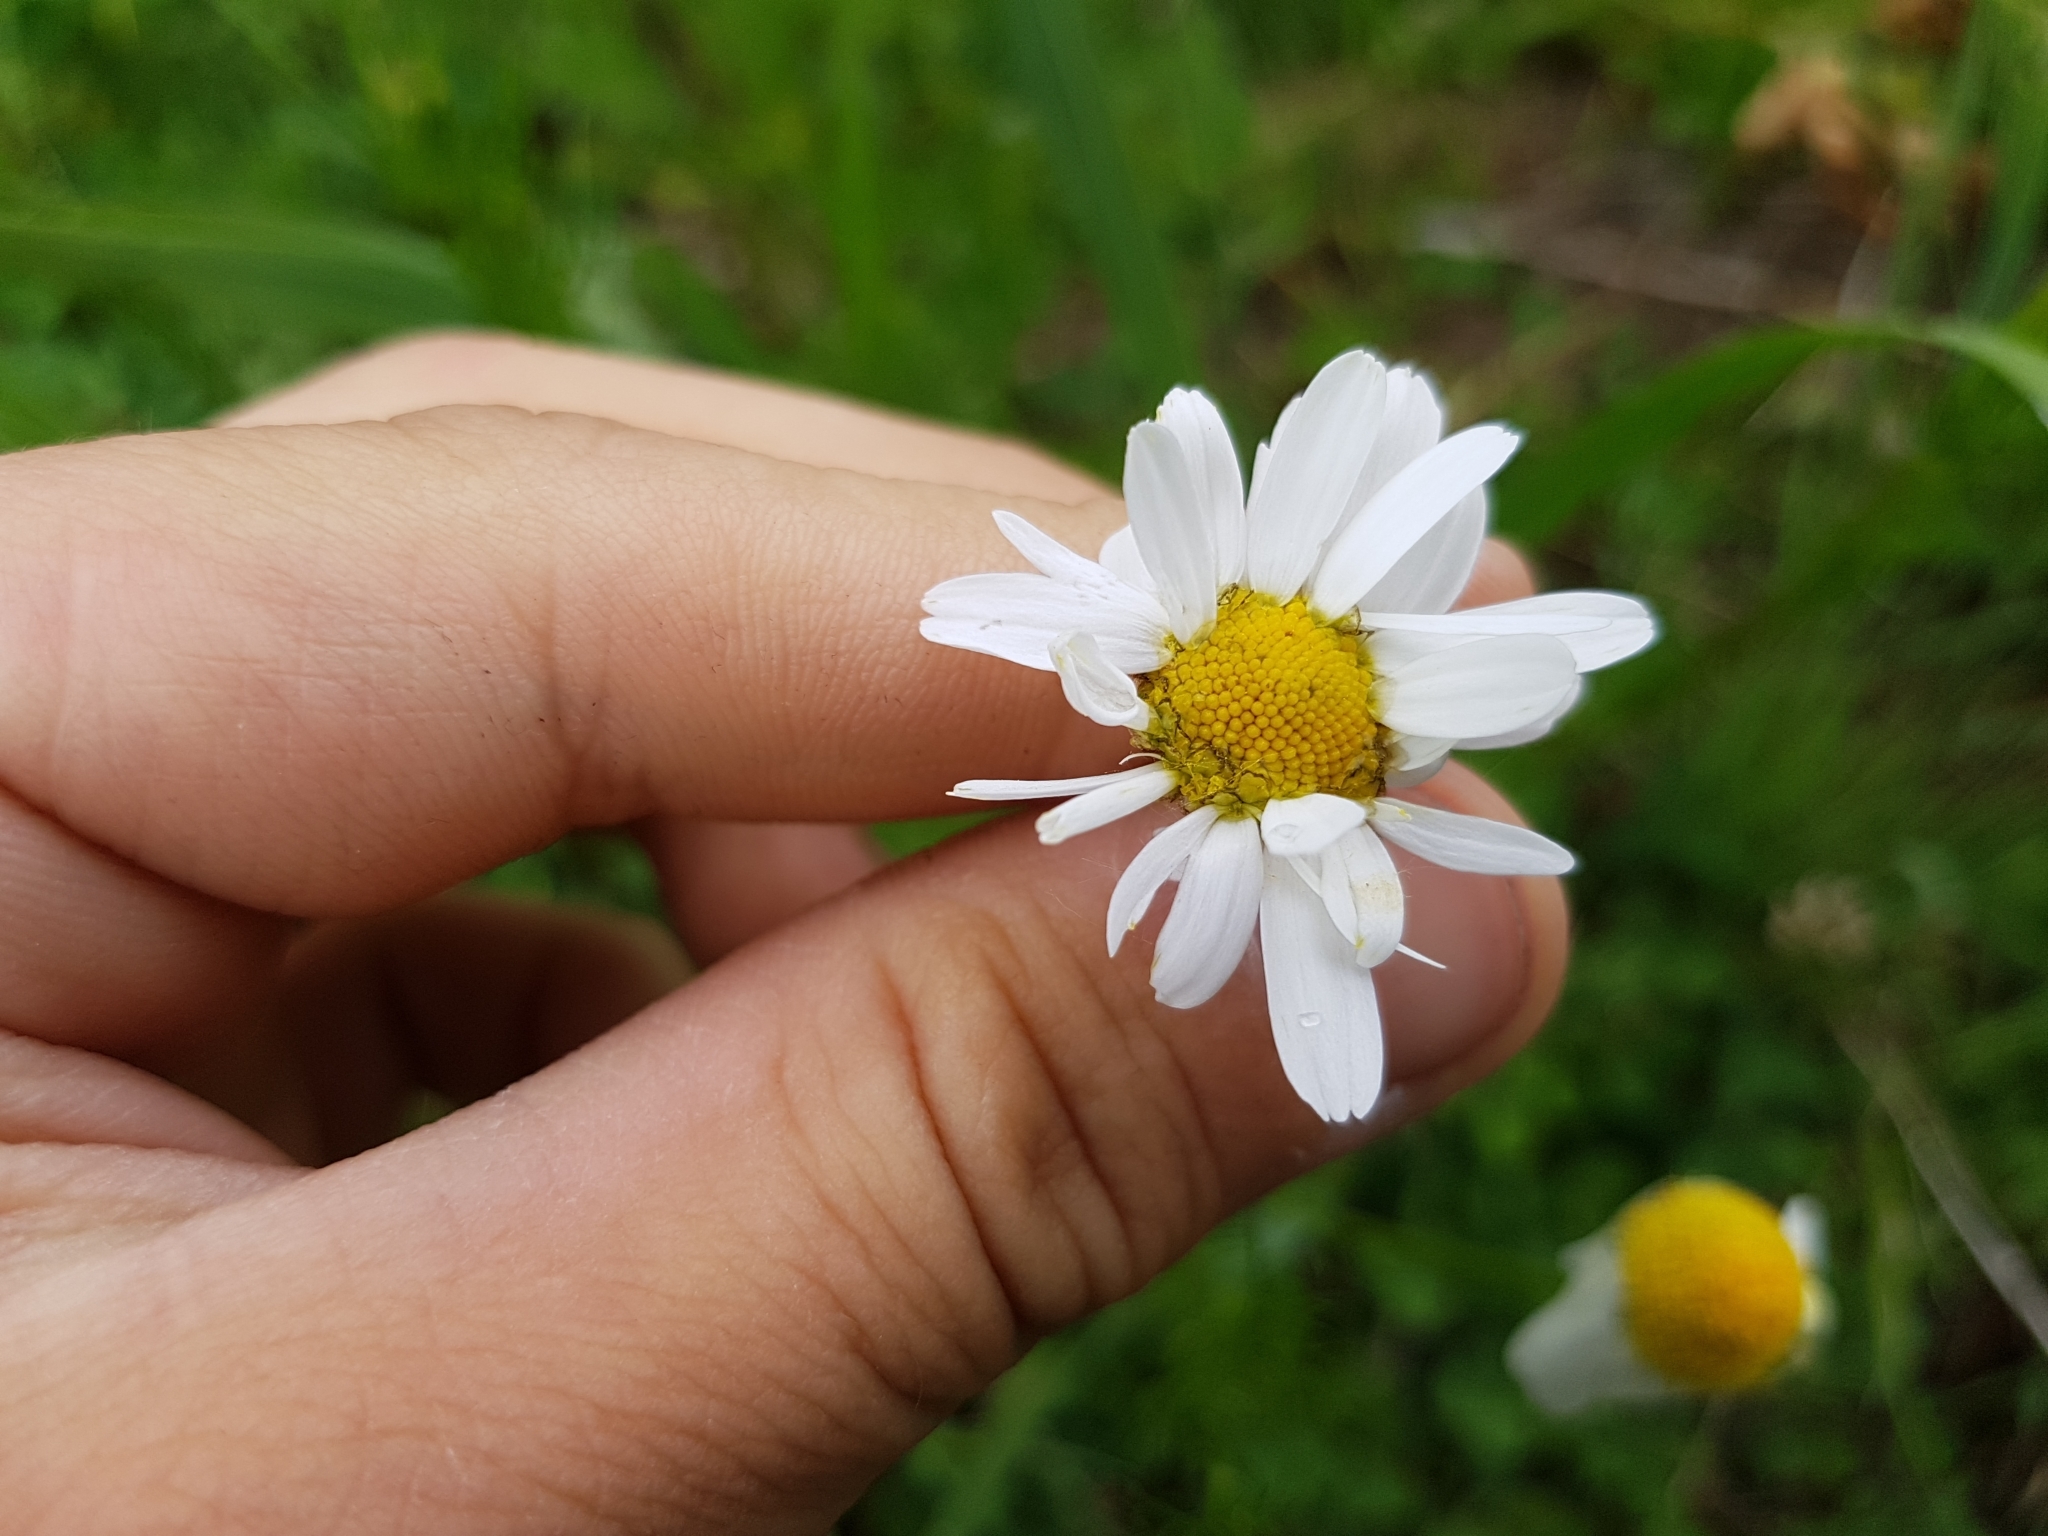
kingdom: Plantae
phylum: Tracheophyta
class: Magnoliopsida
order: Asterales
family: Asteraceae
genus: Matricaria
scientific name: Matricaria chamomilla
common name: Scented mayweed
